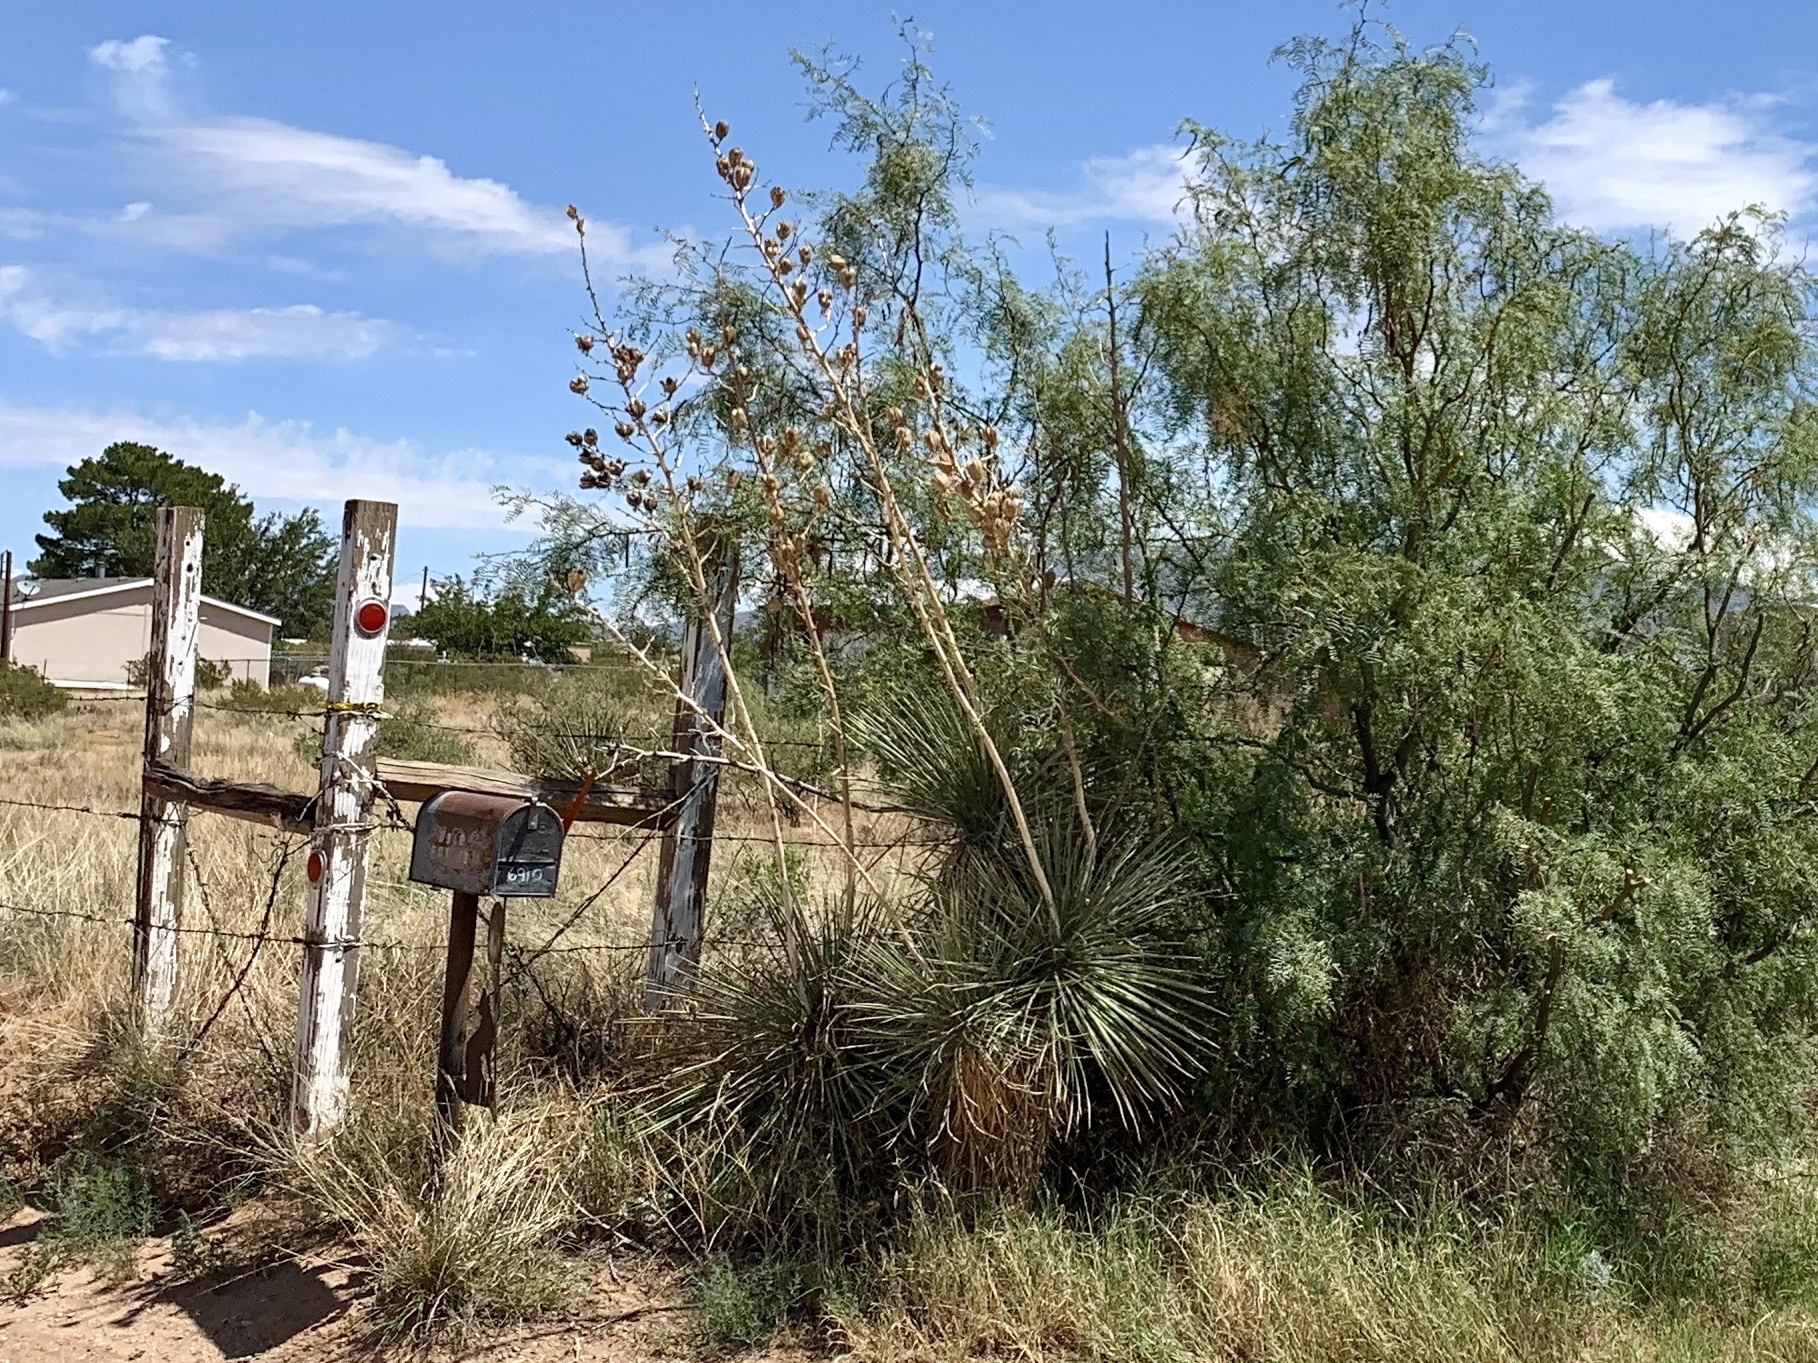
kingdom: Plantae
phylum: Tracheophyta
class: Liliopsida
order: Asparagales
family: Asparagaceae
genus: Yucca
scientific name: Yucca elata
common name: Palmella
